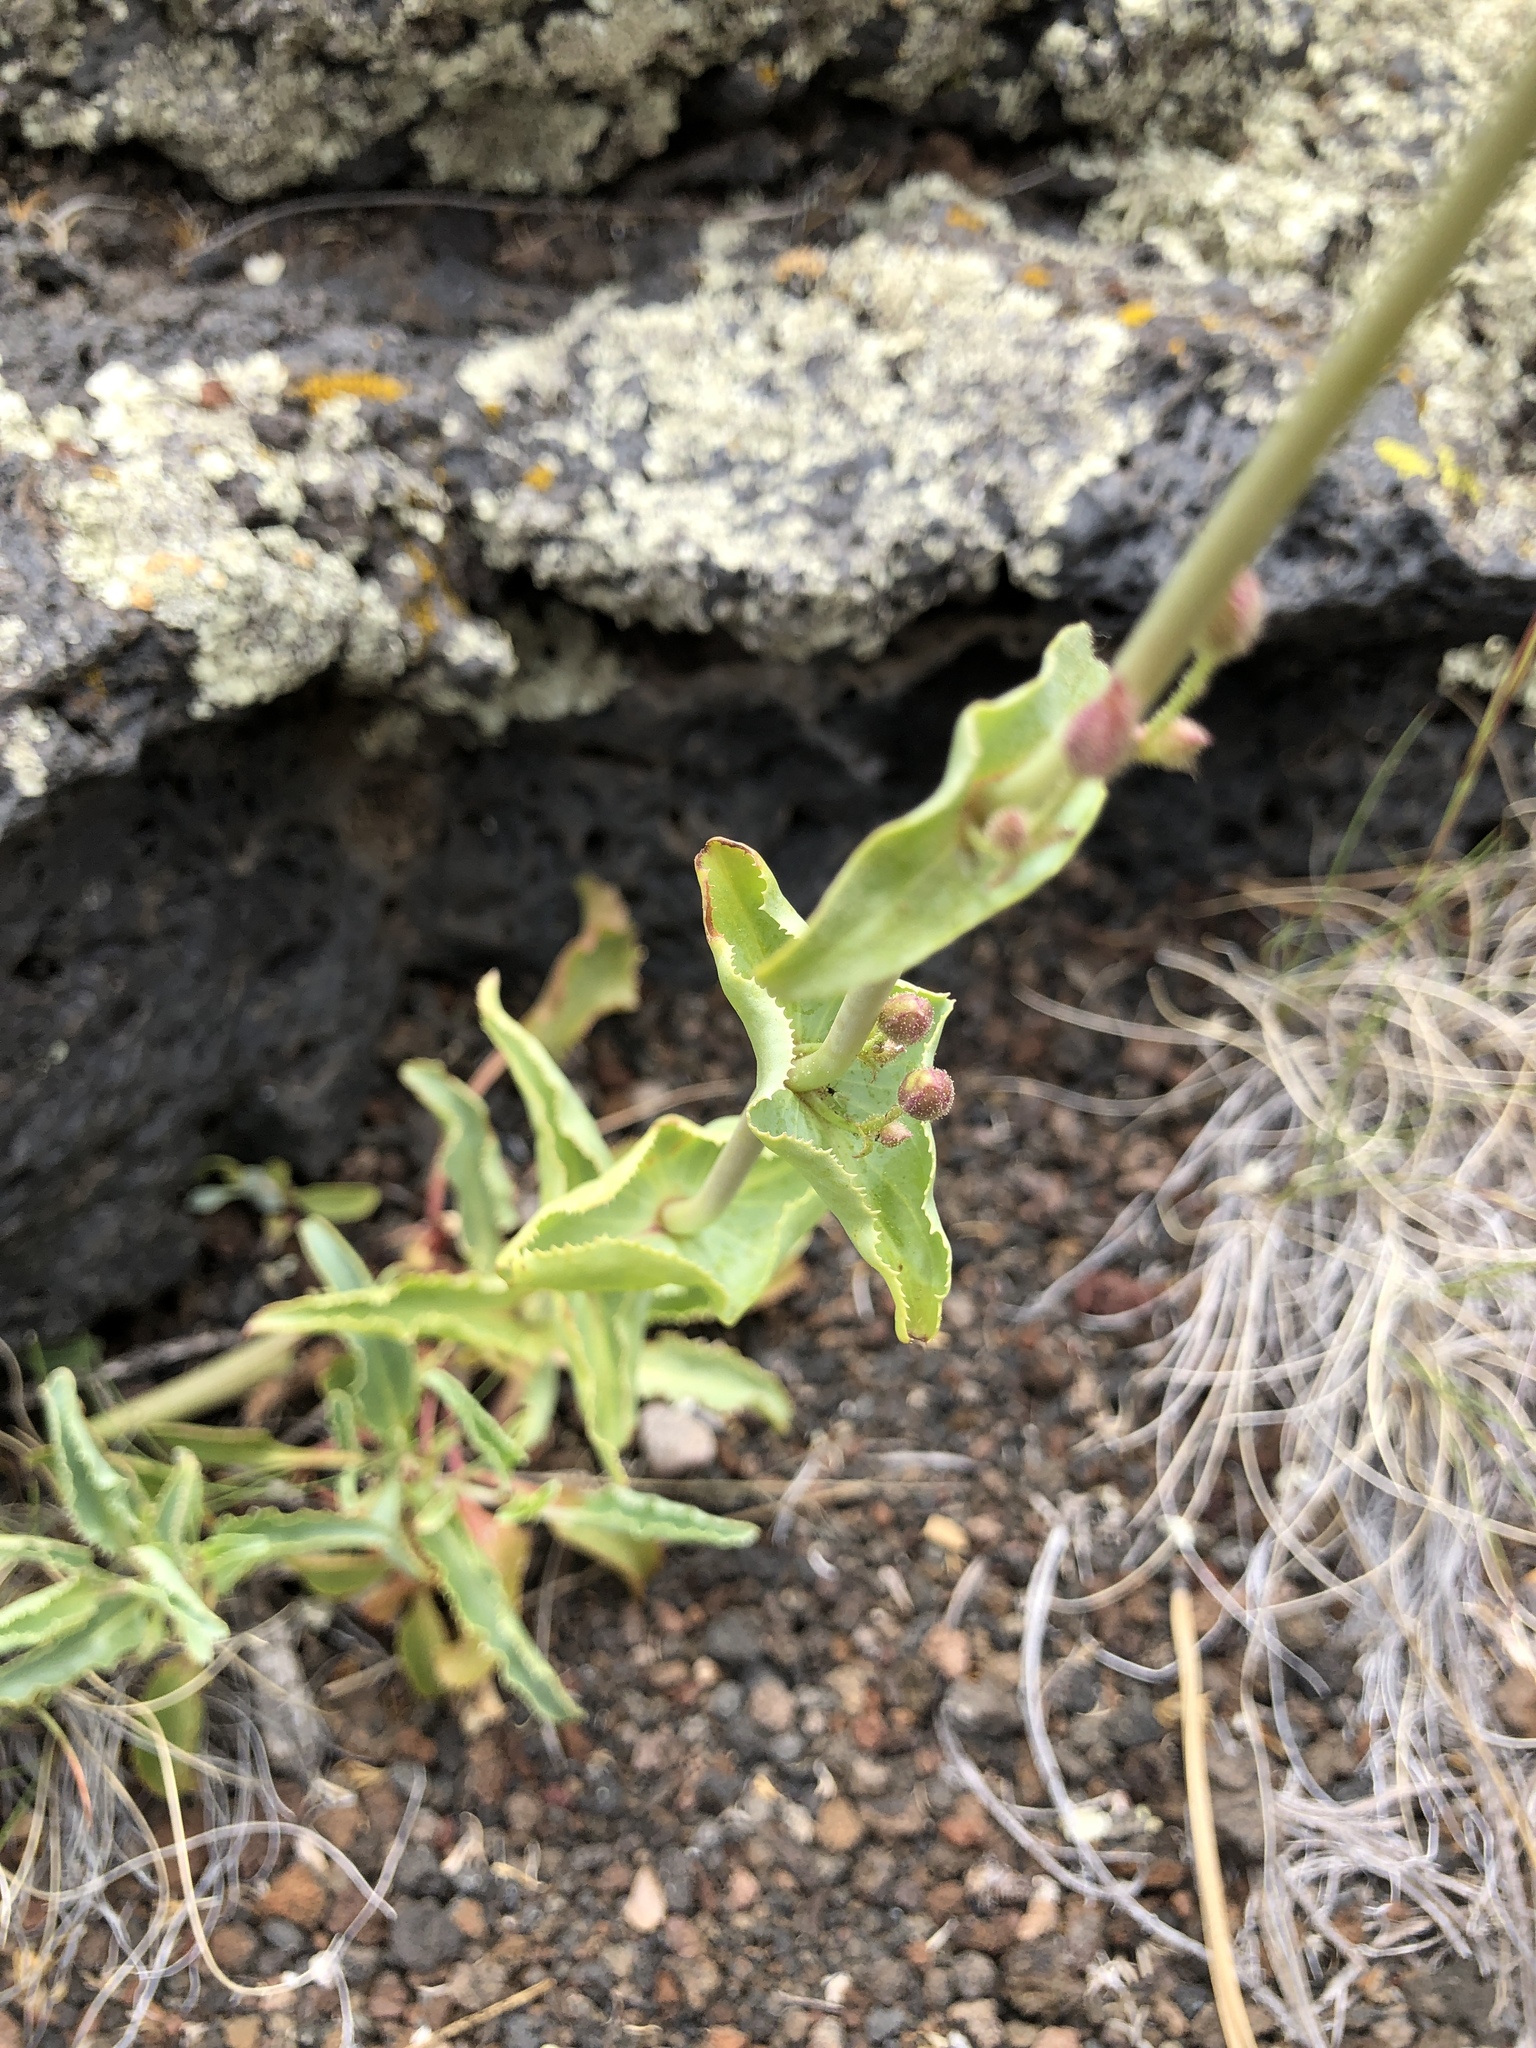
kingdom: Plantae
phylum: Tracheophyta
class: Magnoliopsida
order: Lamiales
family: Plantaginaceae
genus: Penstemon
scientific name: Penstemon clutei
